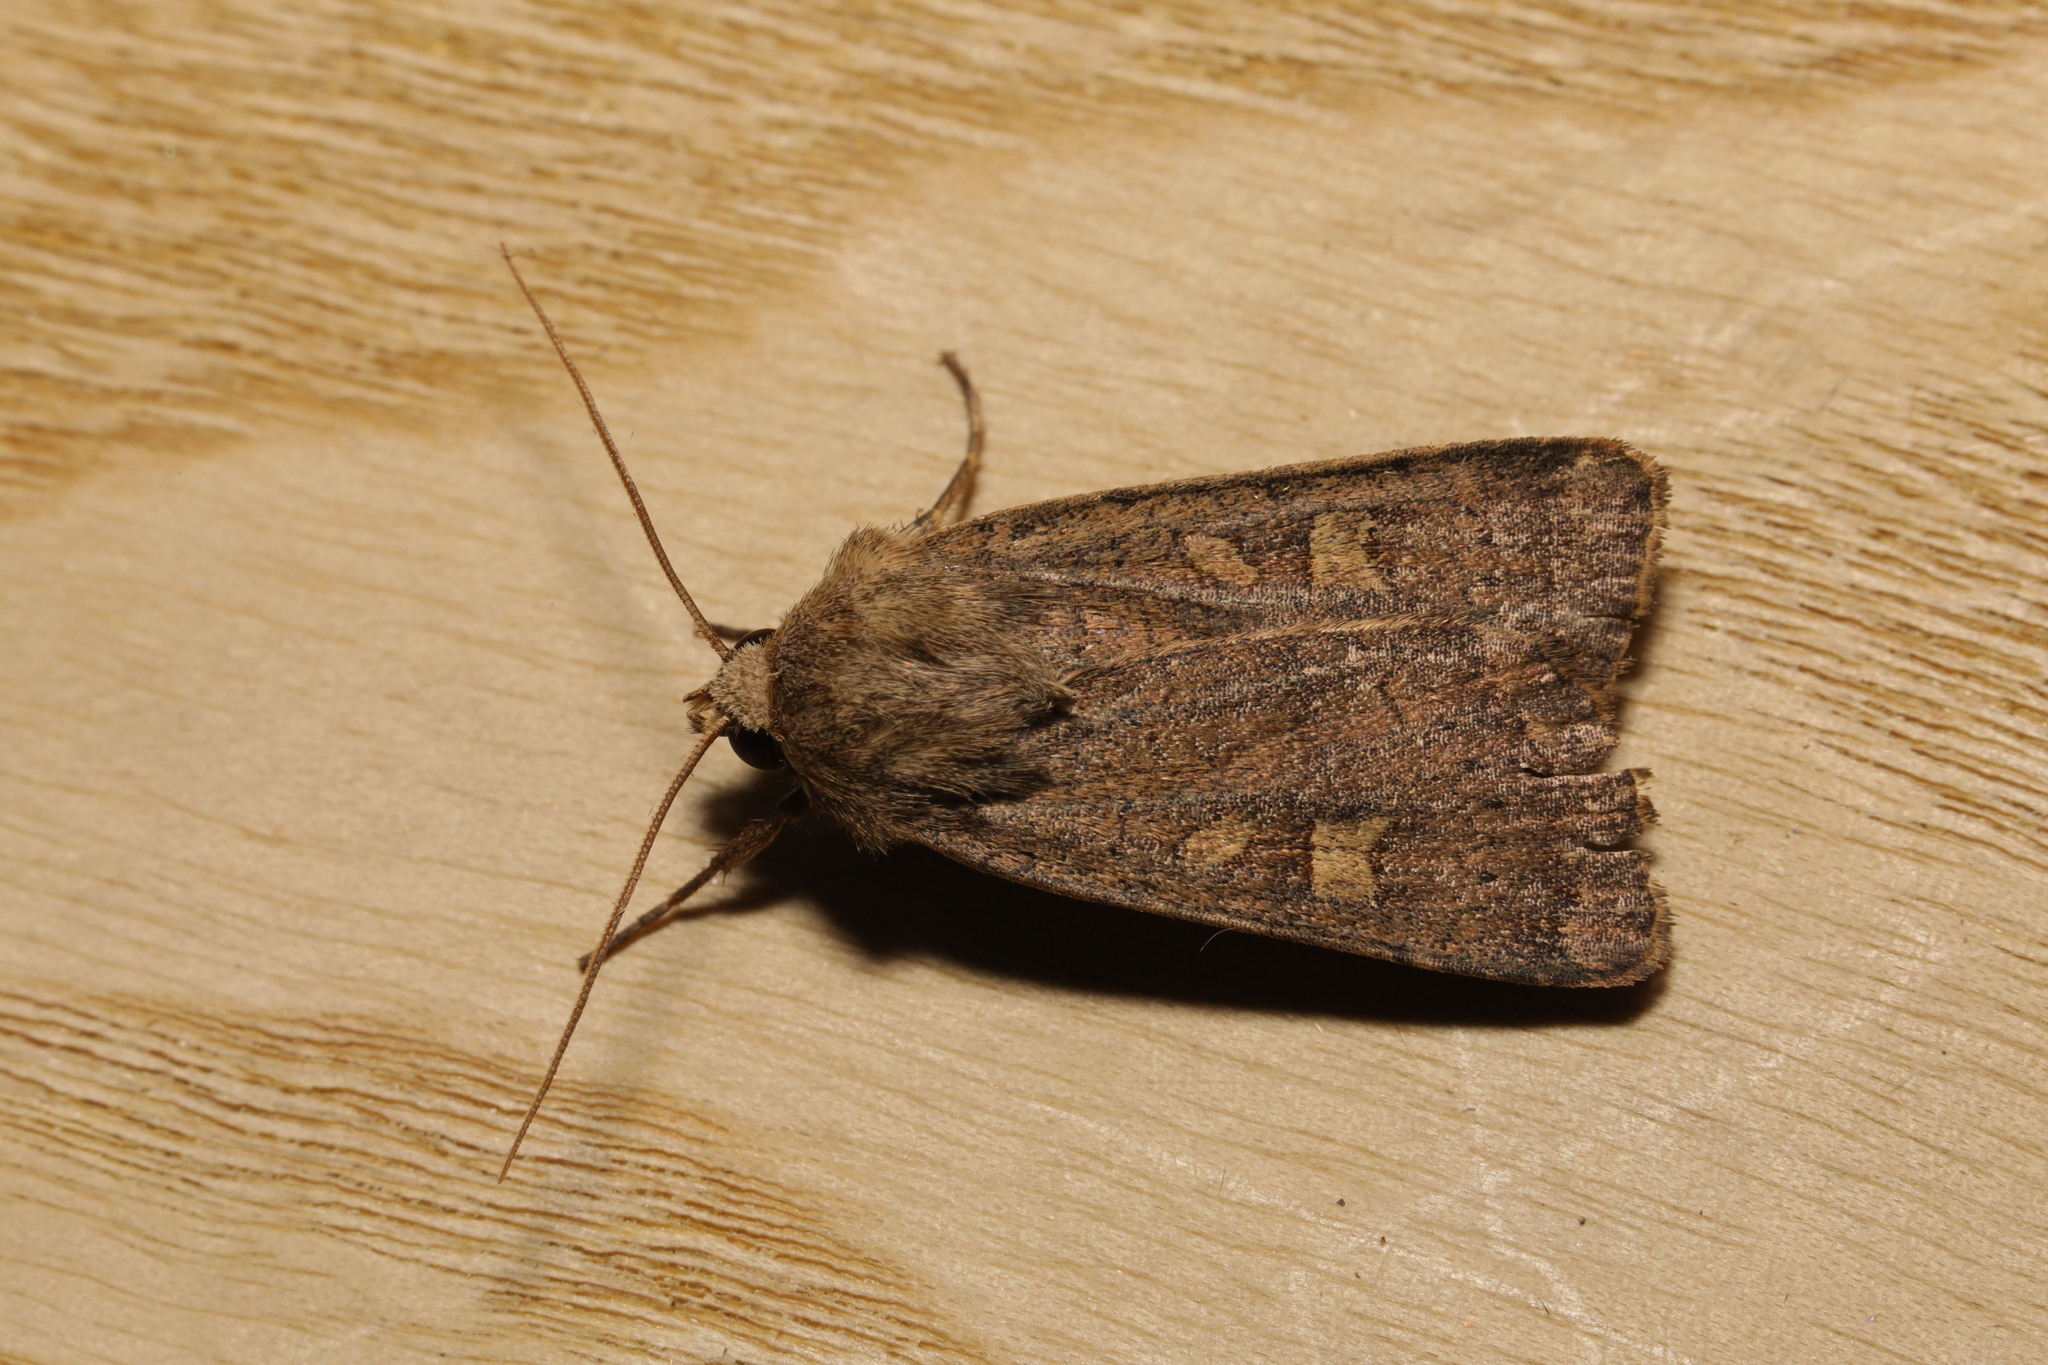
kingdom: Animalia
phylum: Arthropoda
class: Insecta
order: Lepidoptera
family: Noctuidae
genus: Xestia
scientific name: Xestia xanthographa
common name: Square-spot rustic
